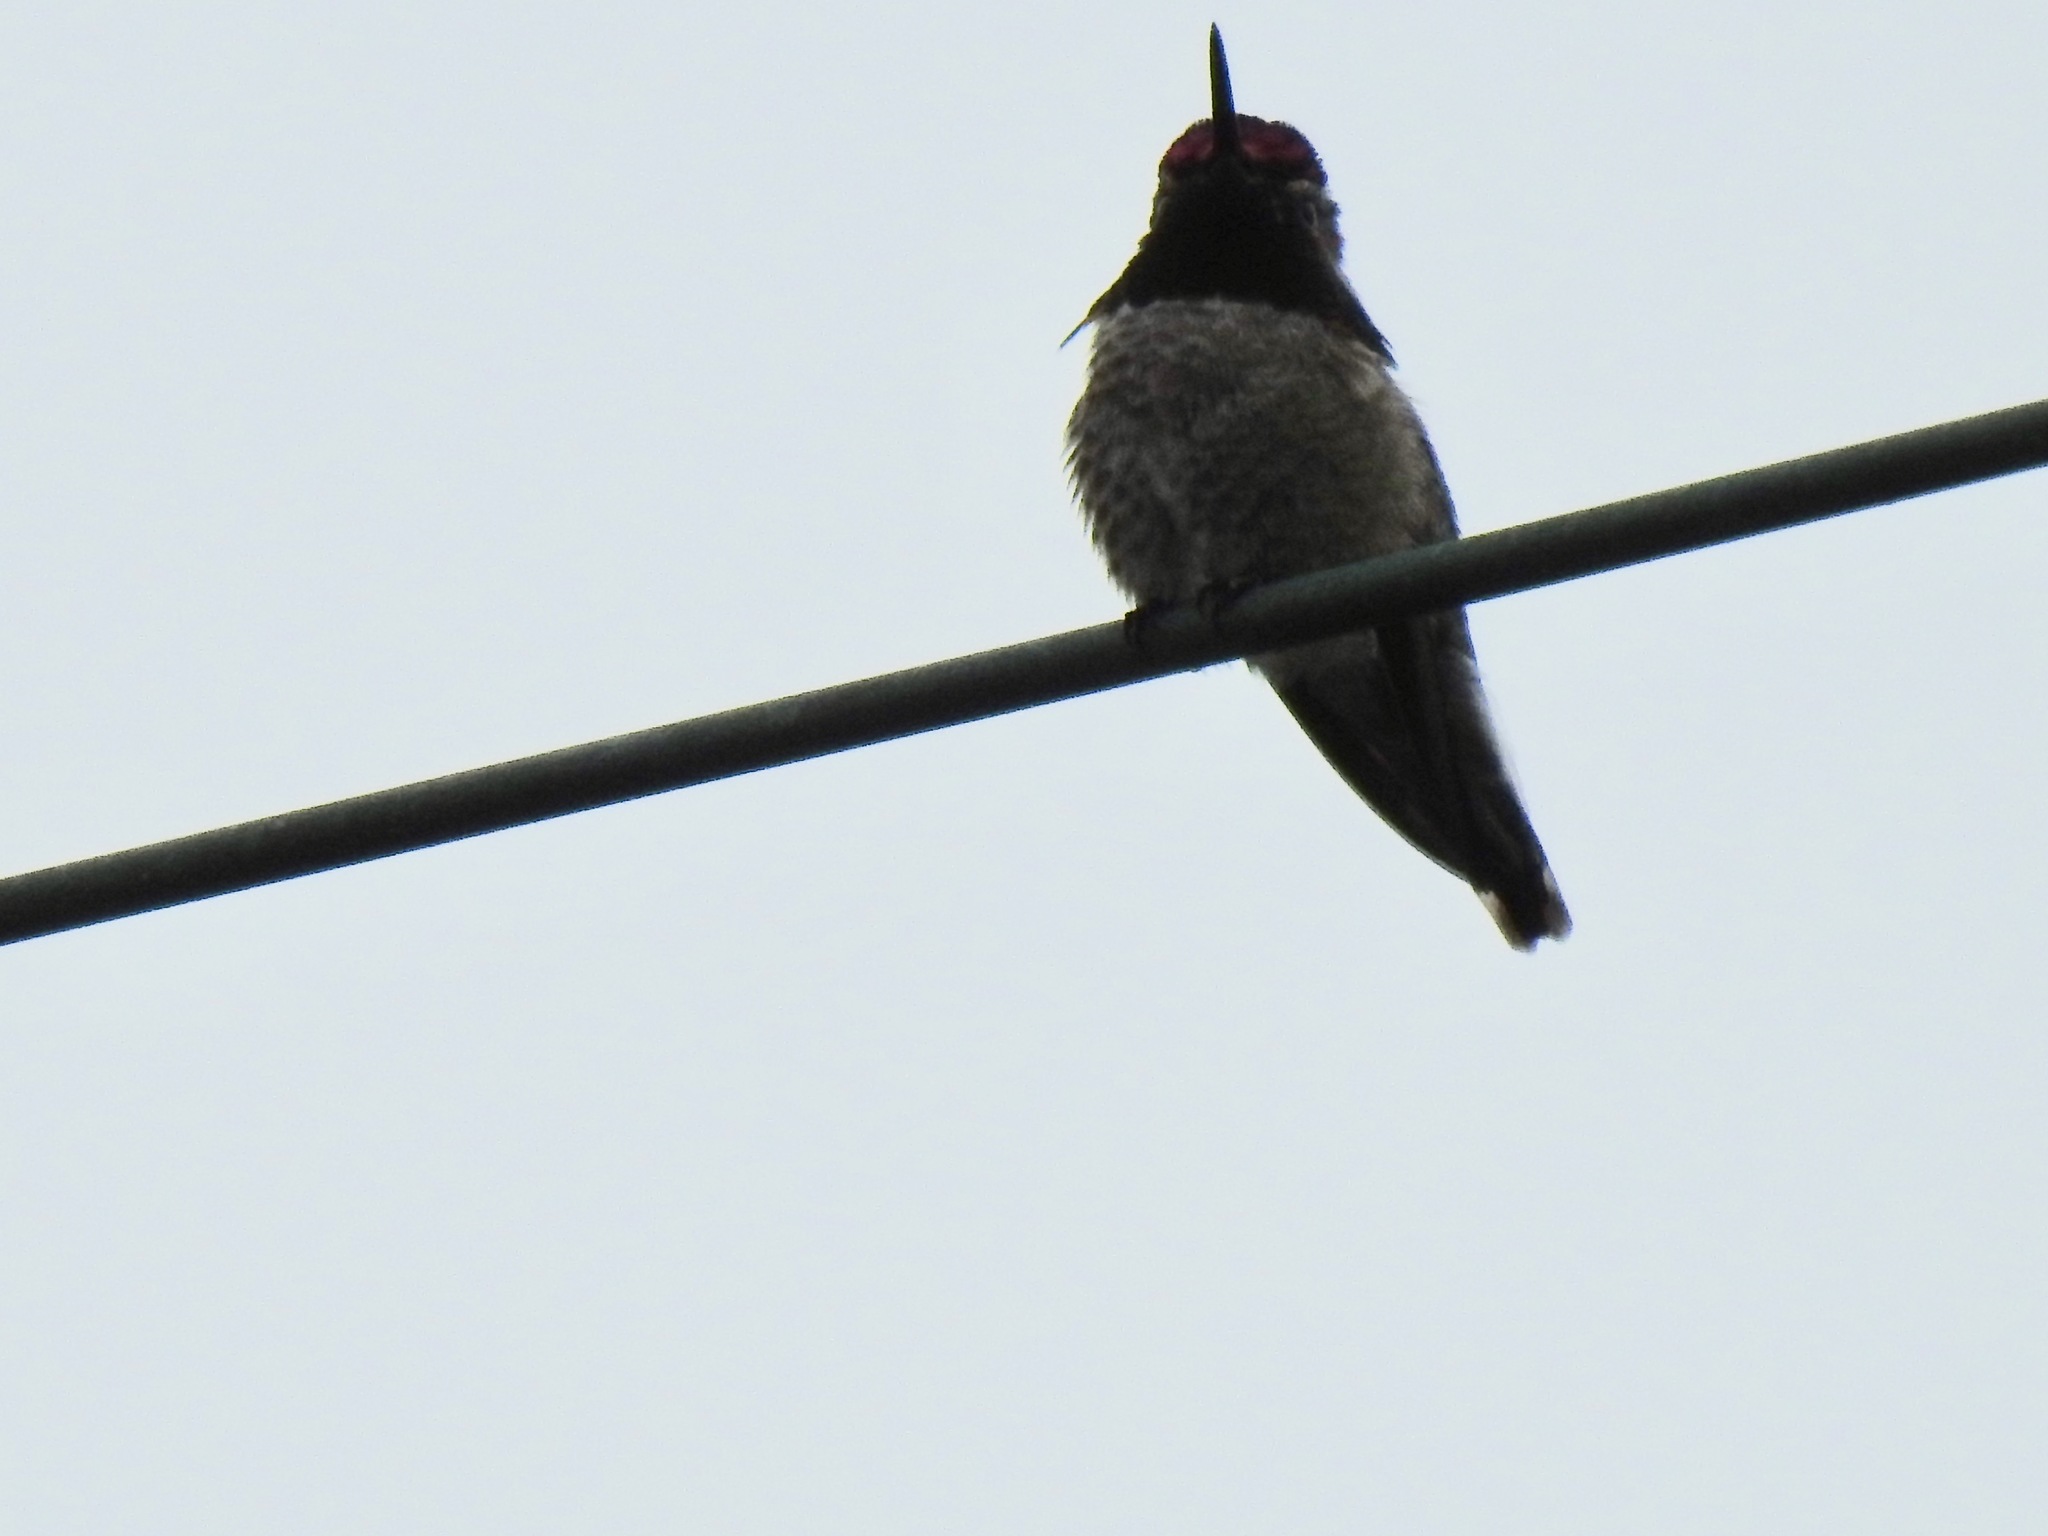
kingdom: Animalia
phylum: Chordata
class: Aves
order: Apodiformes
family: Trochilidae
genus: Calypte
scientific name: Calypte anna
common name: Anna's hummingbird
